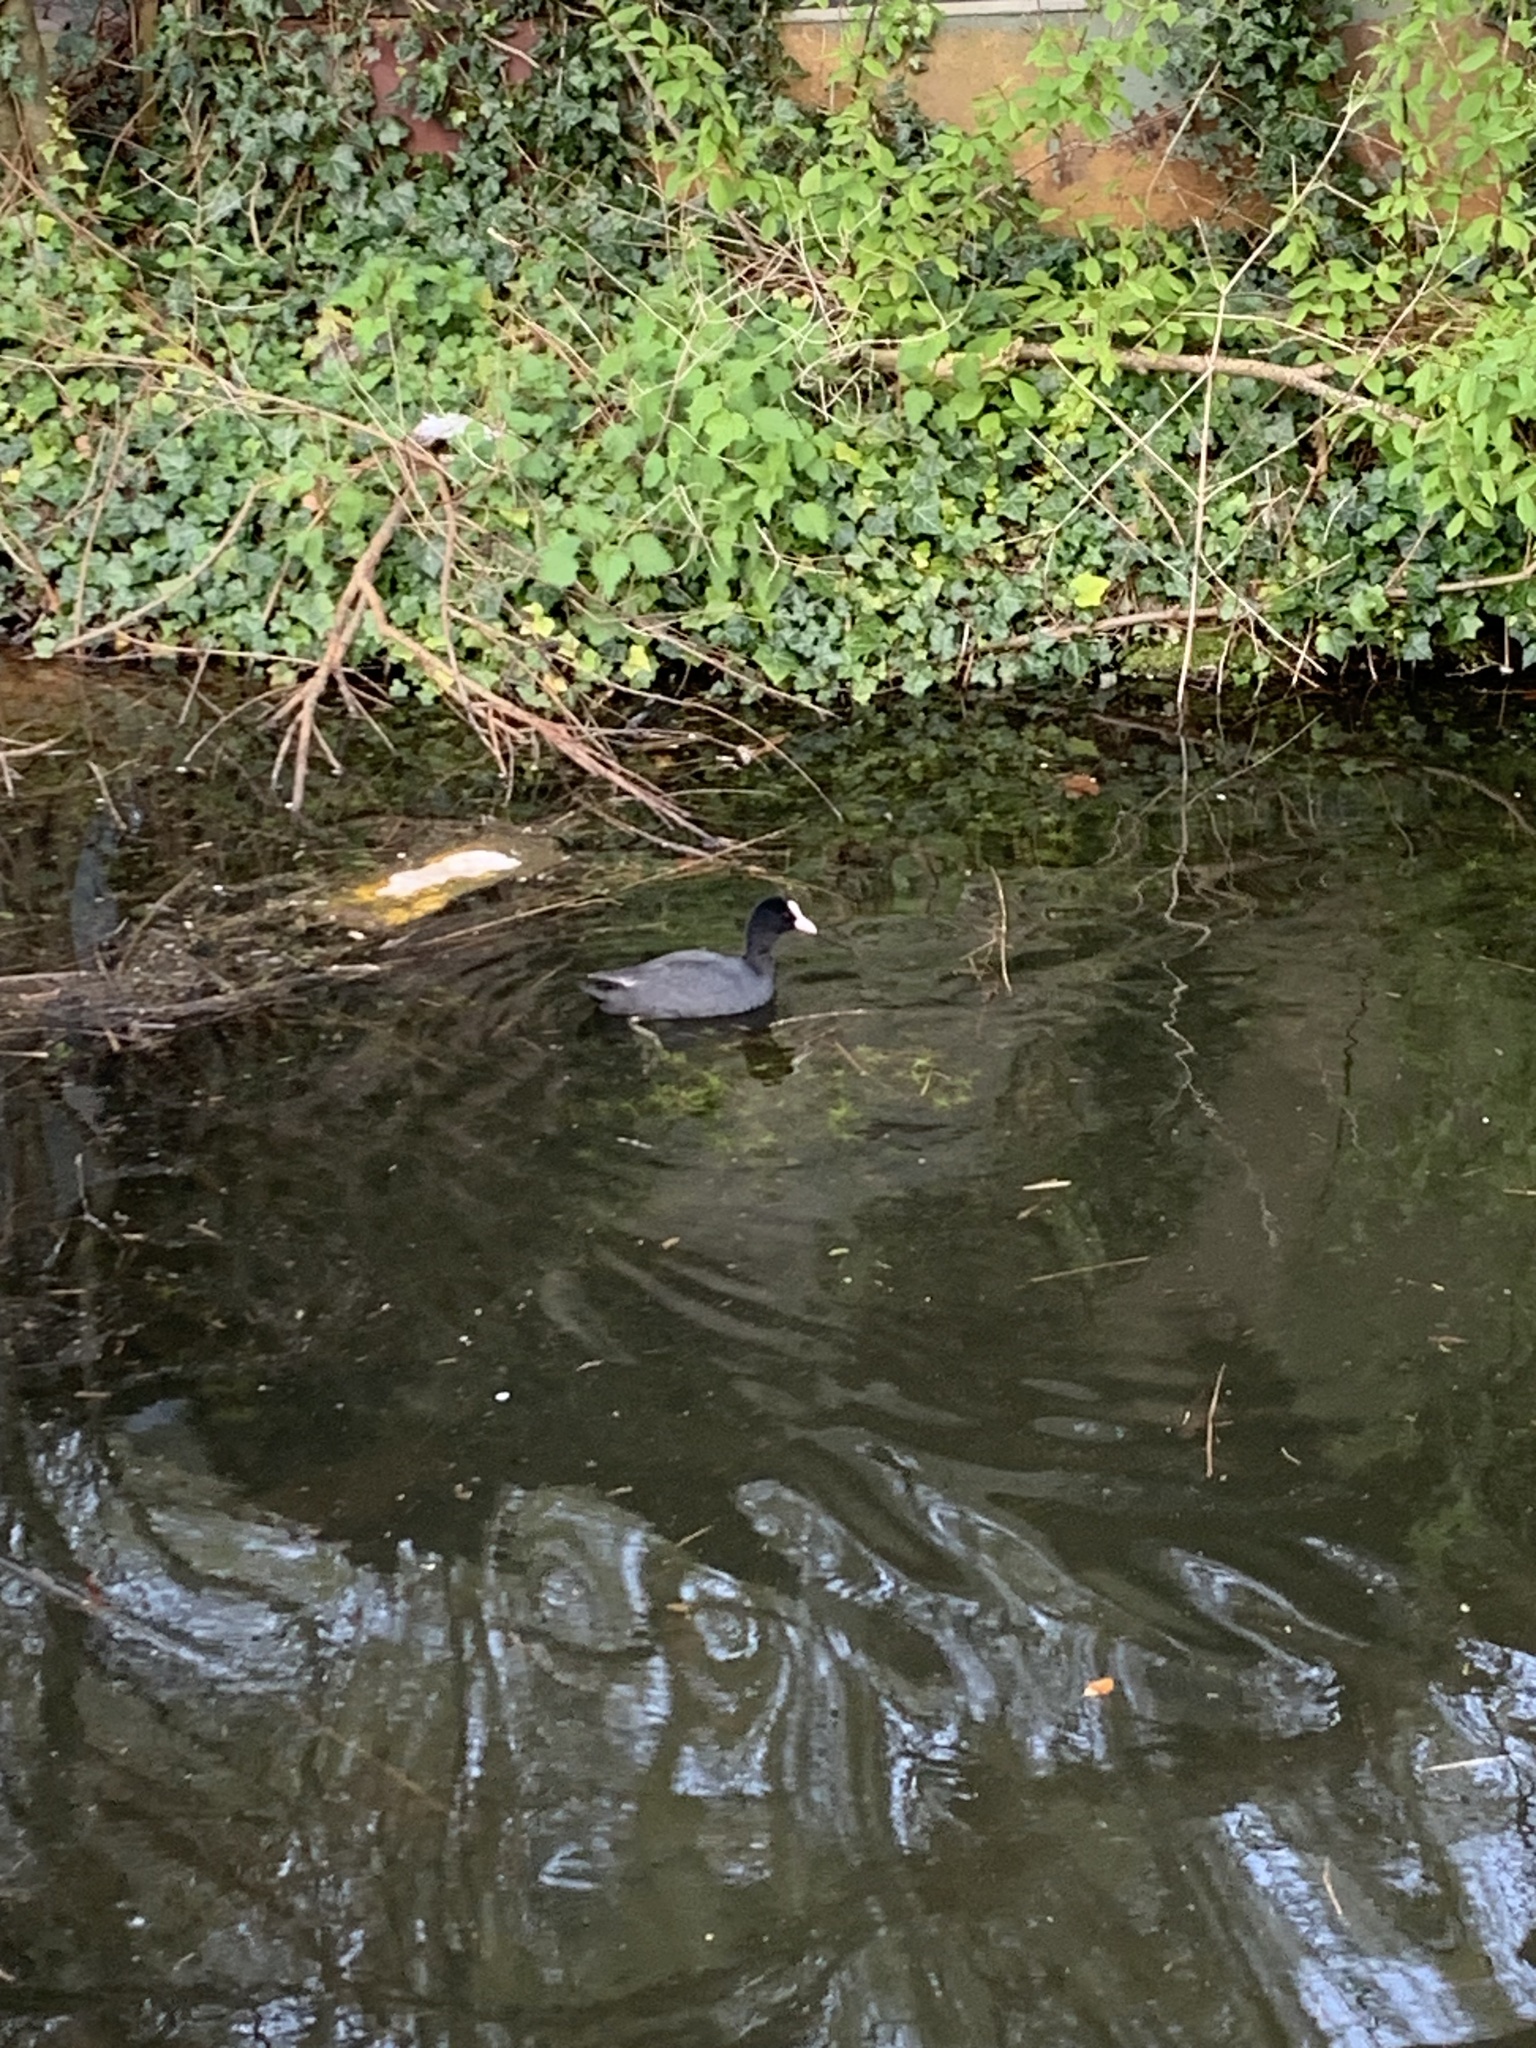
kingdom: Animalia
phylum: Chordata
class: Aves
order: Gruiformes
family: Rallidae
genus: Fulica
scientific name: Fulica atra
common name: Eurasian coot
